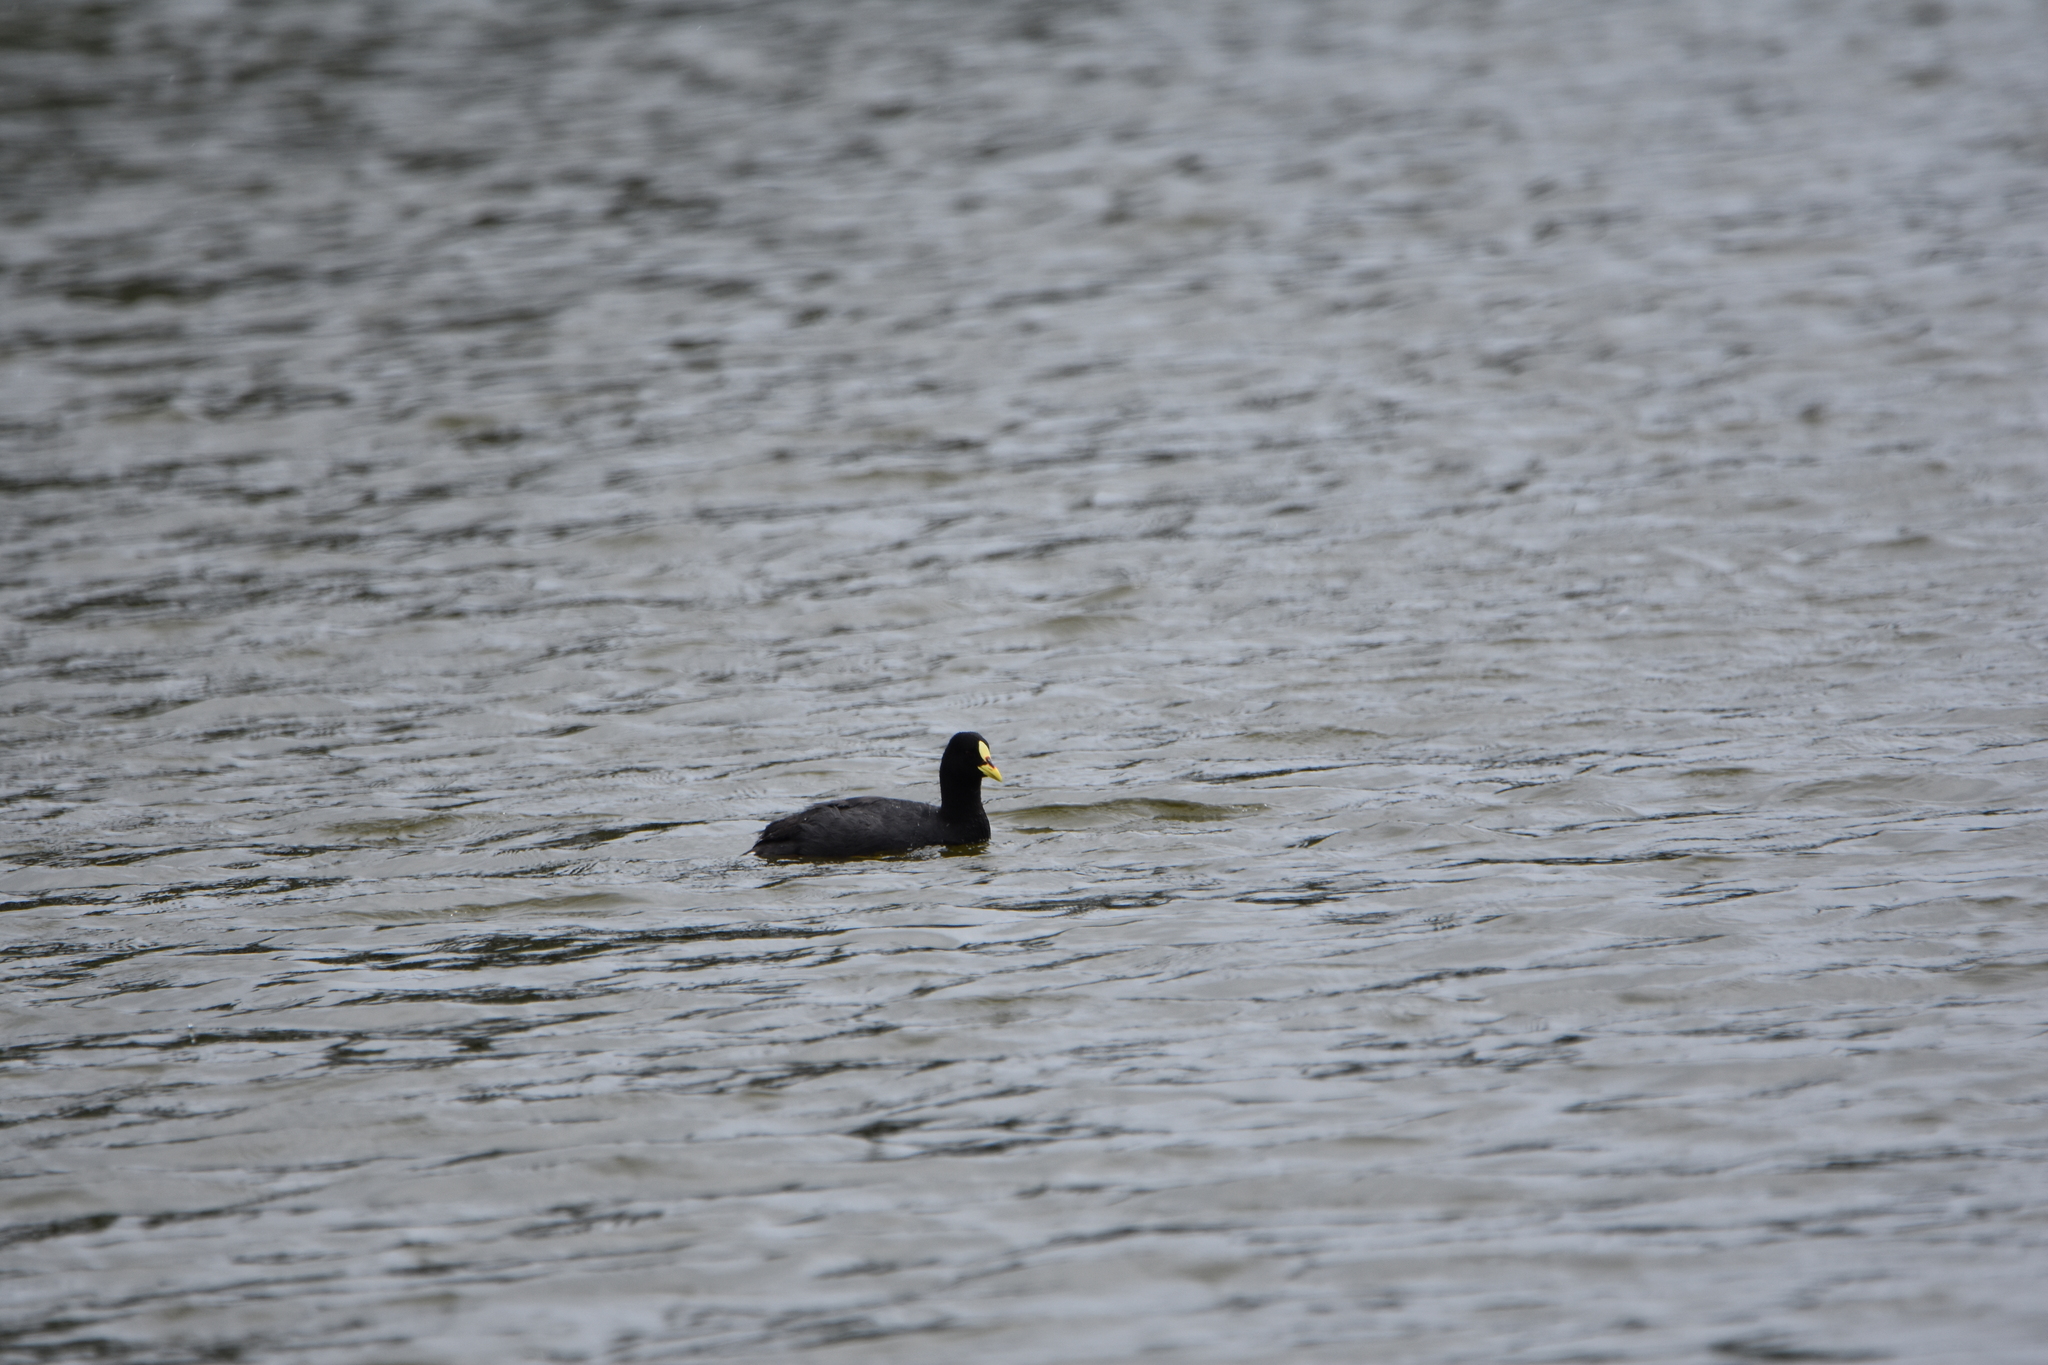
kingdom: Animalia
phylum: Chordata
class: Aves
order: Gruiformes
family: Rallidae
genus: Fulica
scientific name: Fulica armillata
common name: Red-gartered coot
